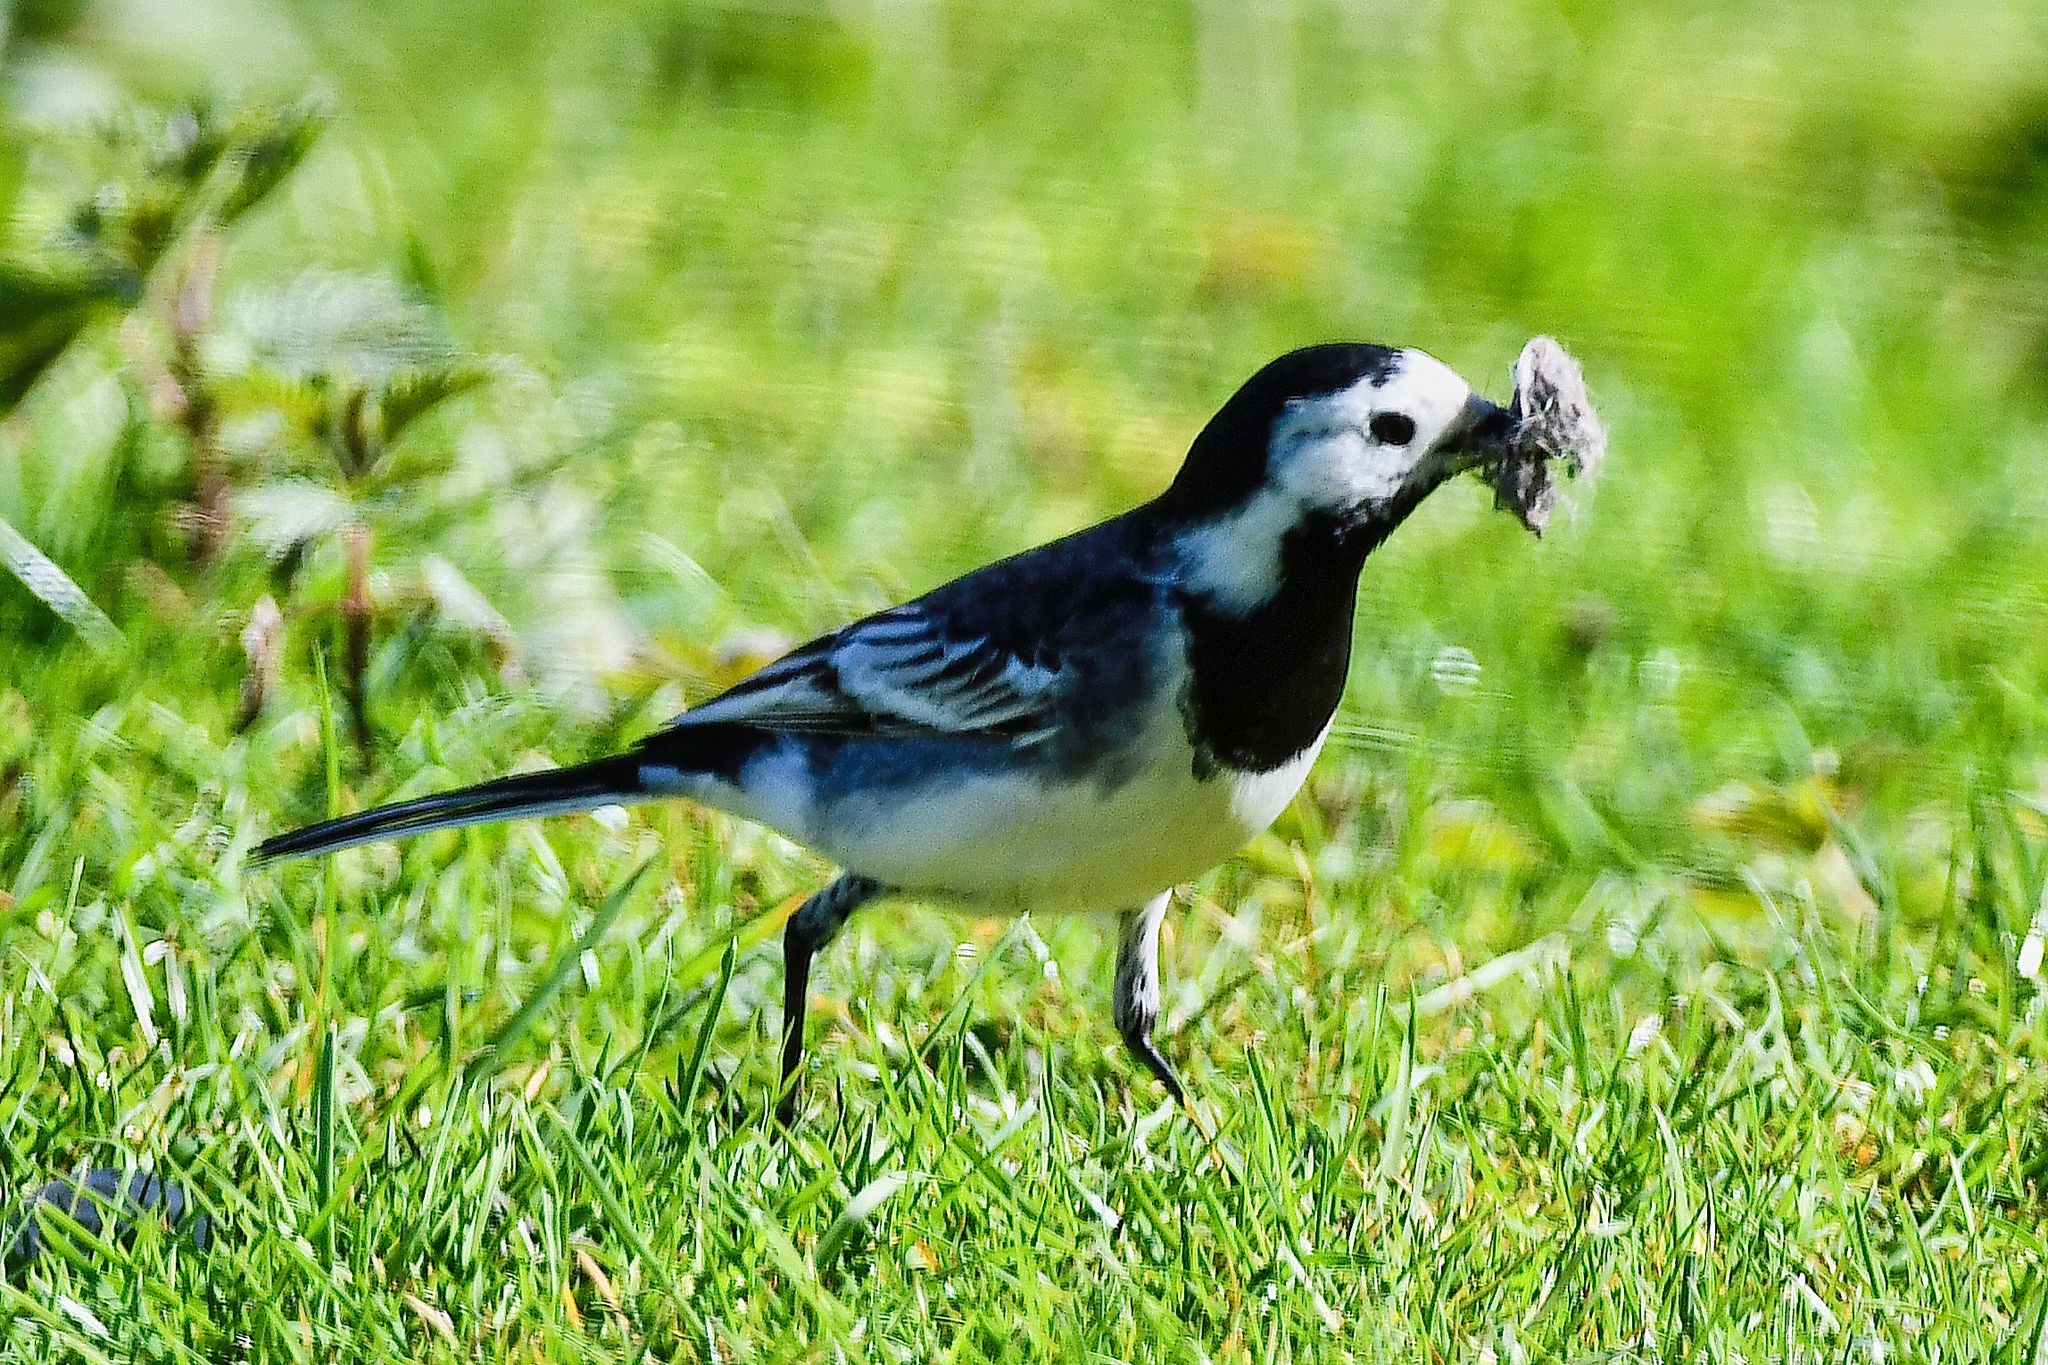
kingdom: Animalia
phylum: Chordata
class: Aves
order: Passeriformes
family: Motacillidae
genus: Motacilla
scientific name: Motacilla alba
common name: White wagtail
